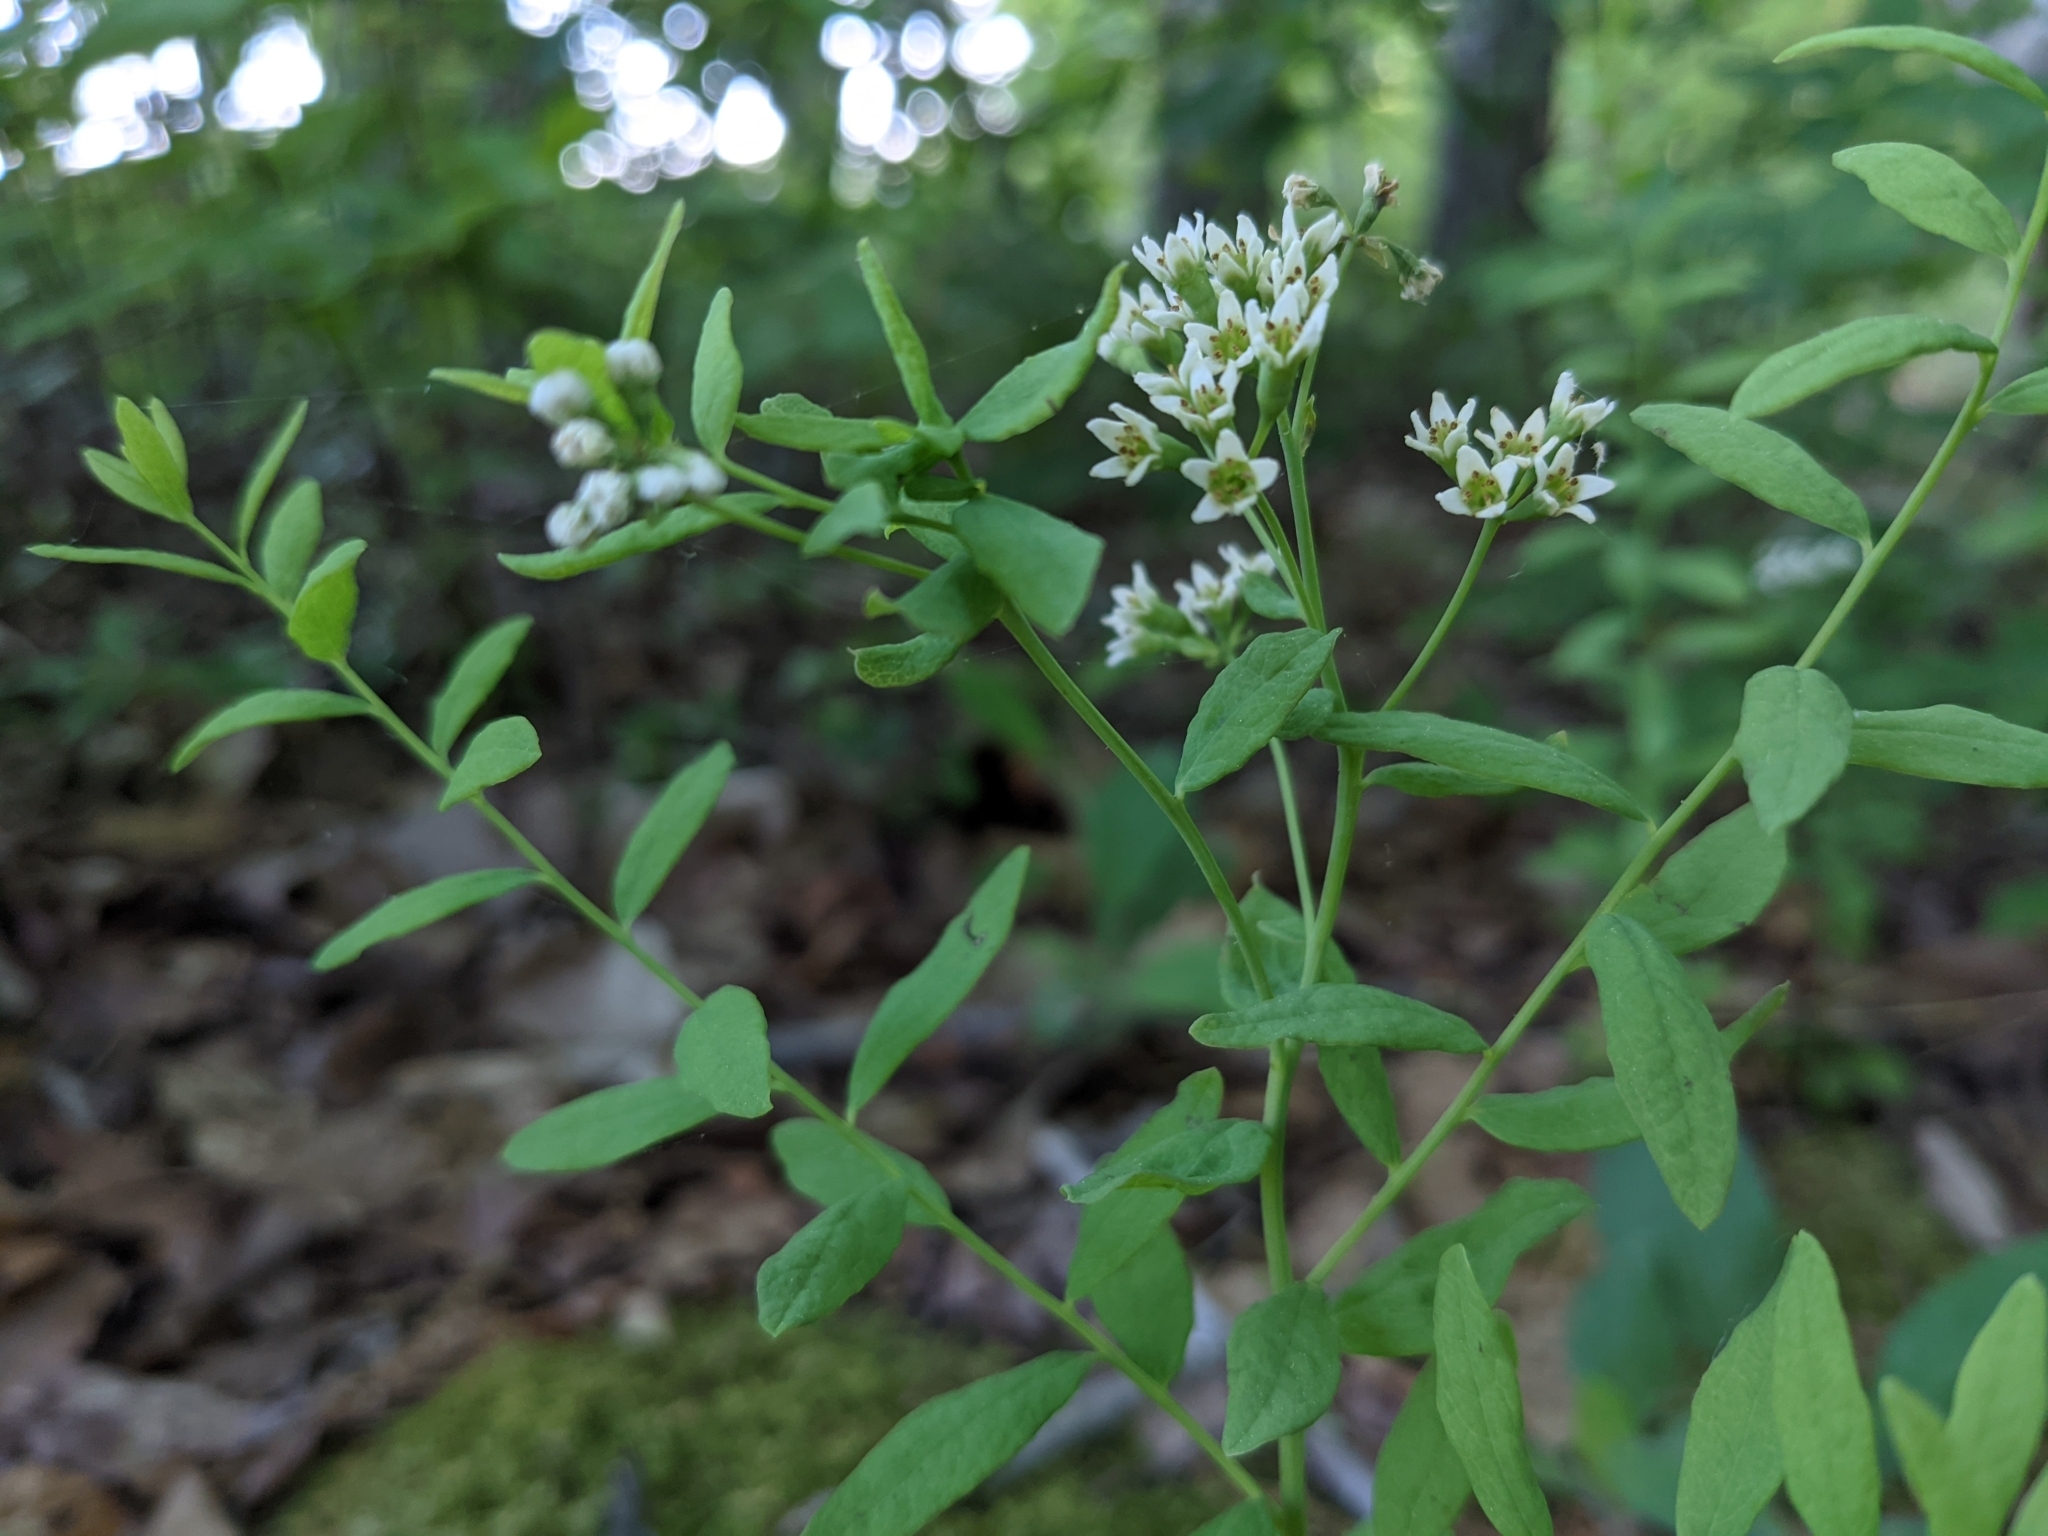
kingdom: Plantae
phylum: Tracheophyta
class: Magnoliopsida
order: Santalales
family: Comandraceae
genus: Comandra
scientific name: Comandra umbellata
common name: Bastard toadflax
